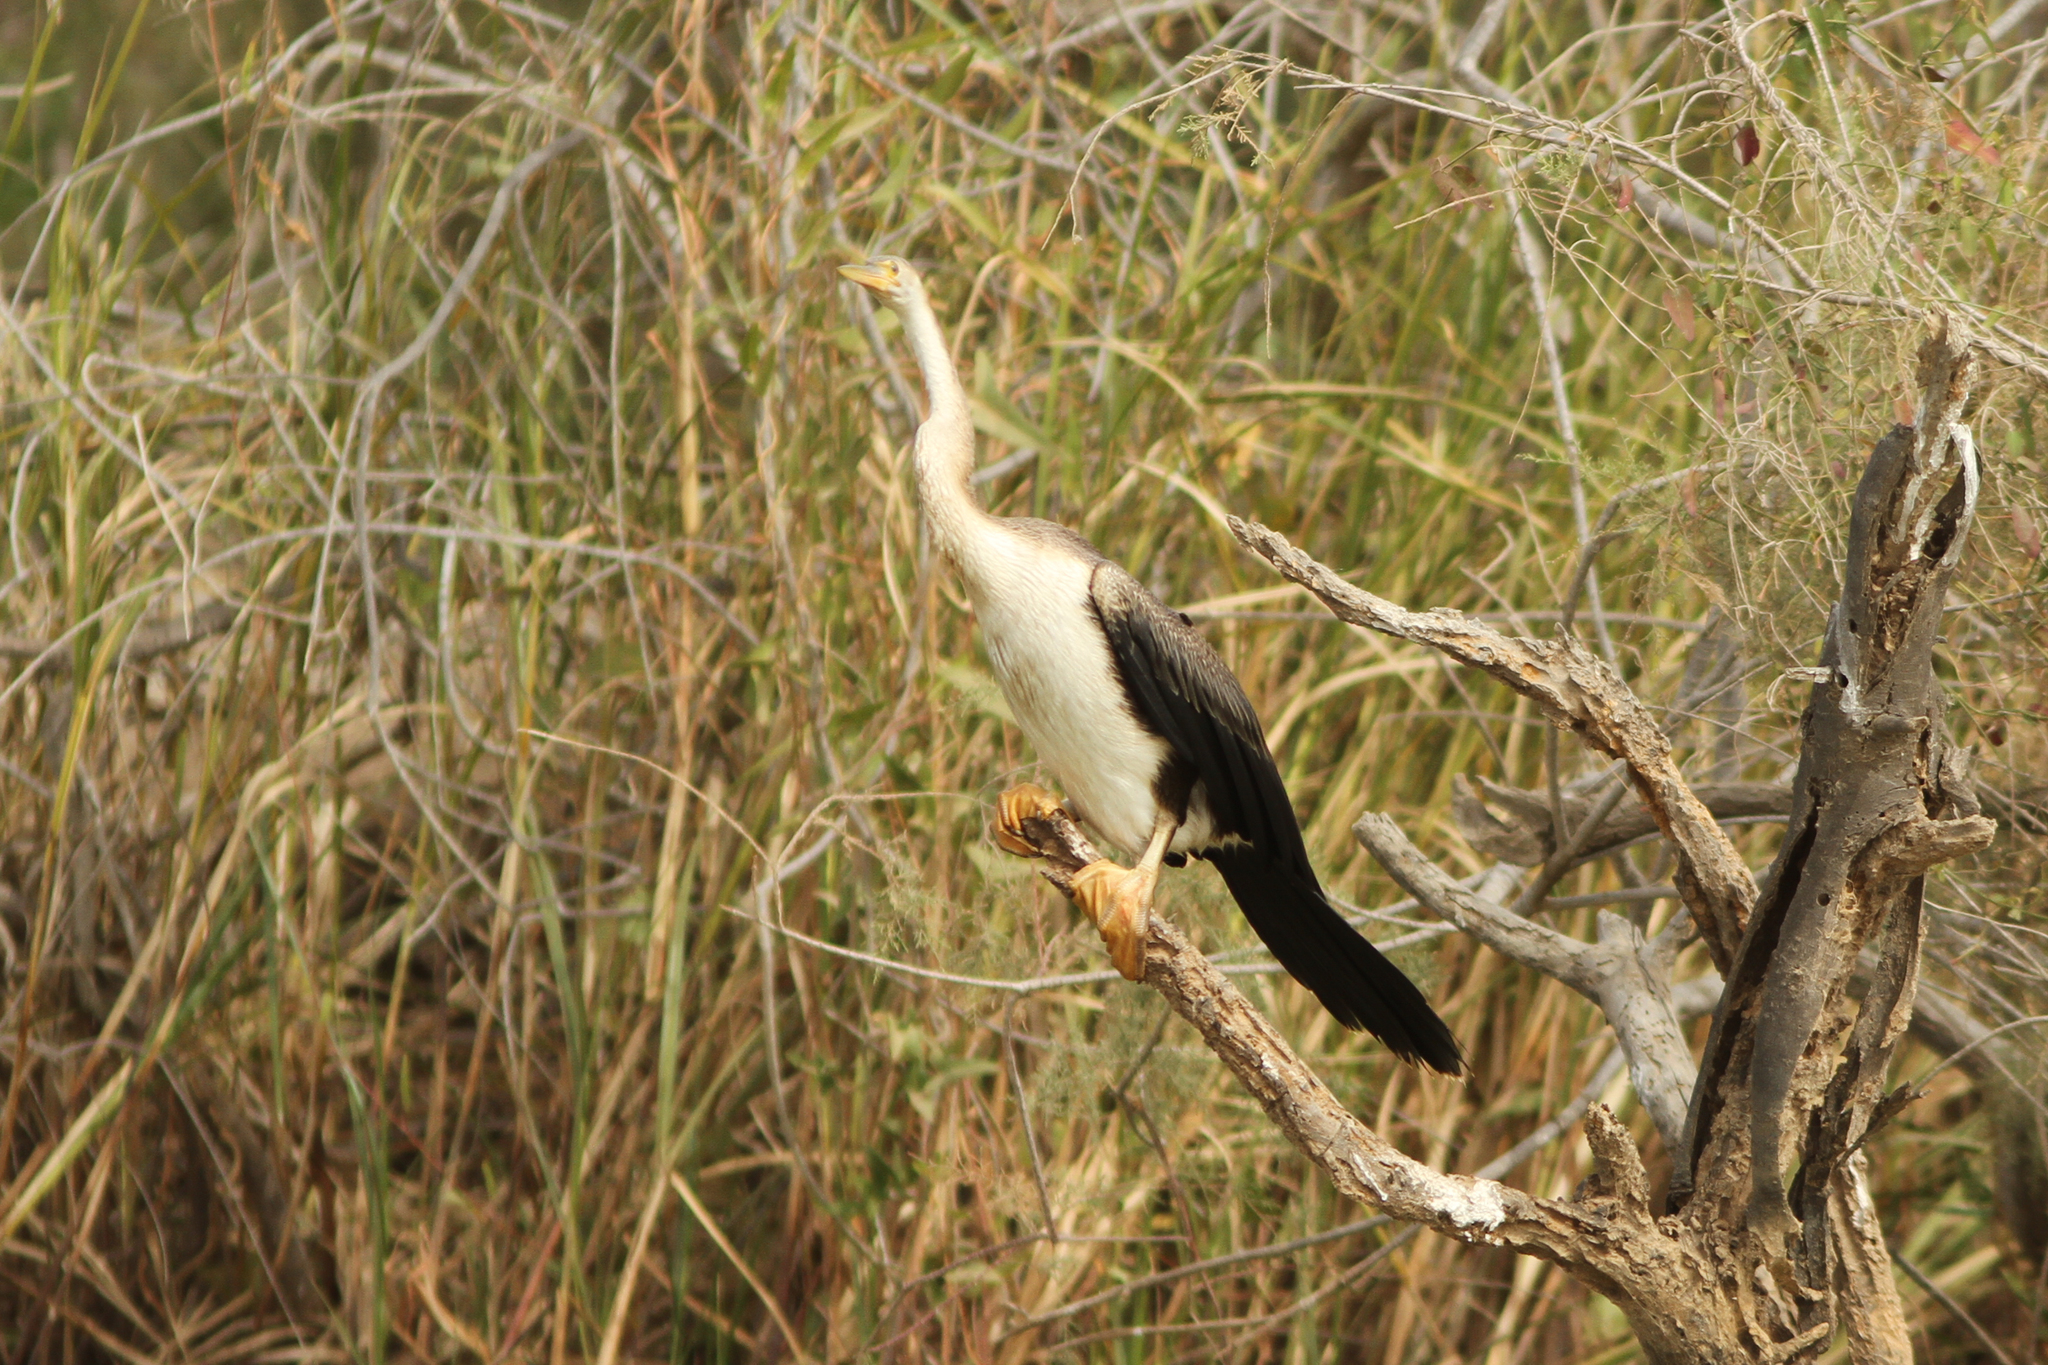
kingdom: Animalia
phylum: Chordata
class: Aves
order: Suliformes
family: Anhingidae
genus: Anhinga
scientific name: Anhinga rufa
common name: African darter
